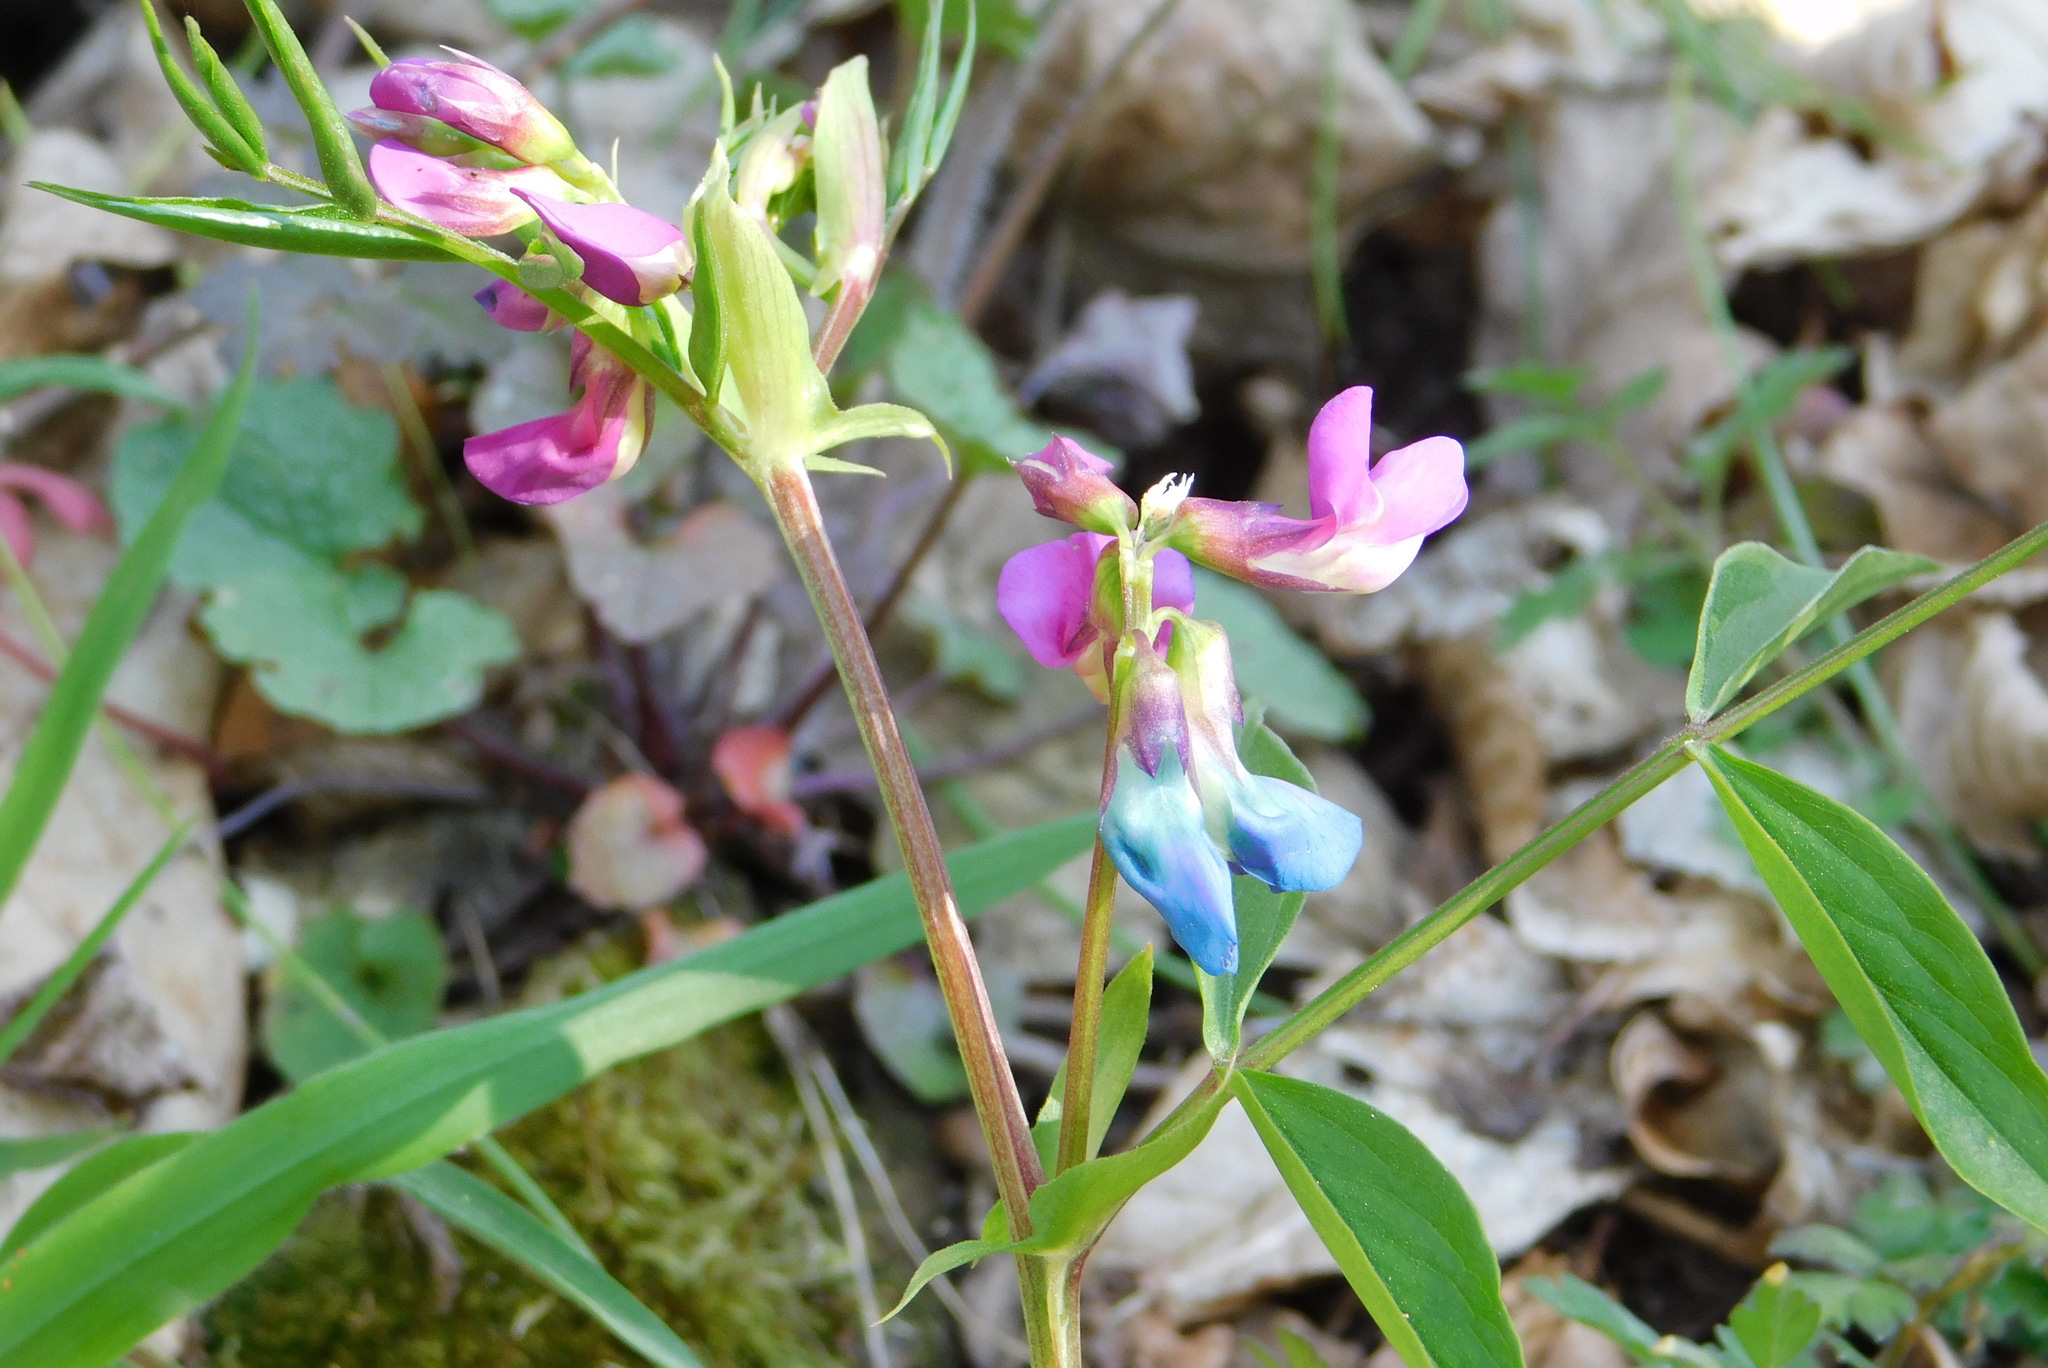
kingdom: Plantae
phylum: Tracheophyta
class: Magnoliopsida
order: Fabales
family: Fabaceae
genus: Lathyrus
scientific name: Lathyrus vernus
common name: Spring pea
